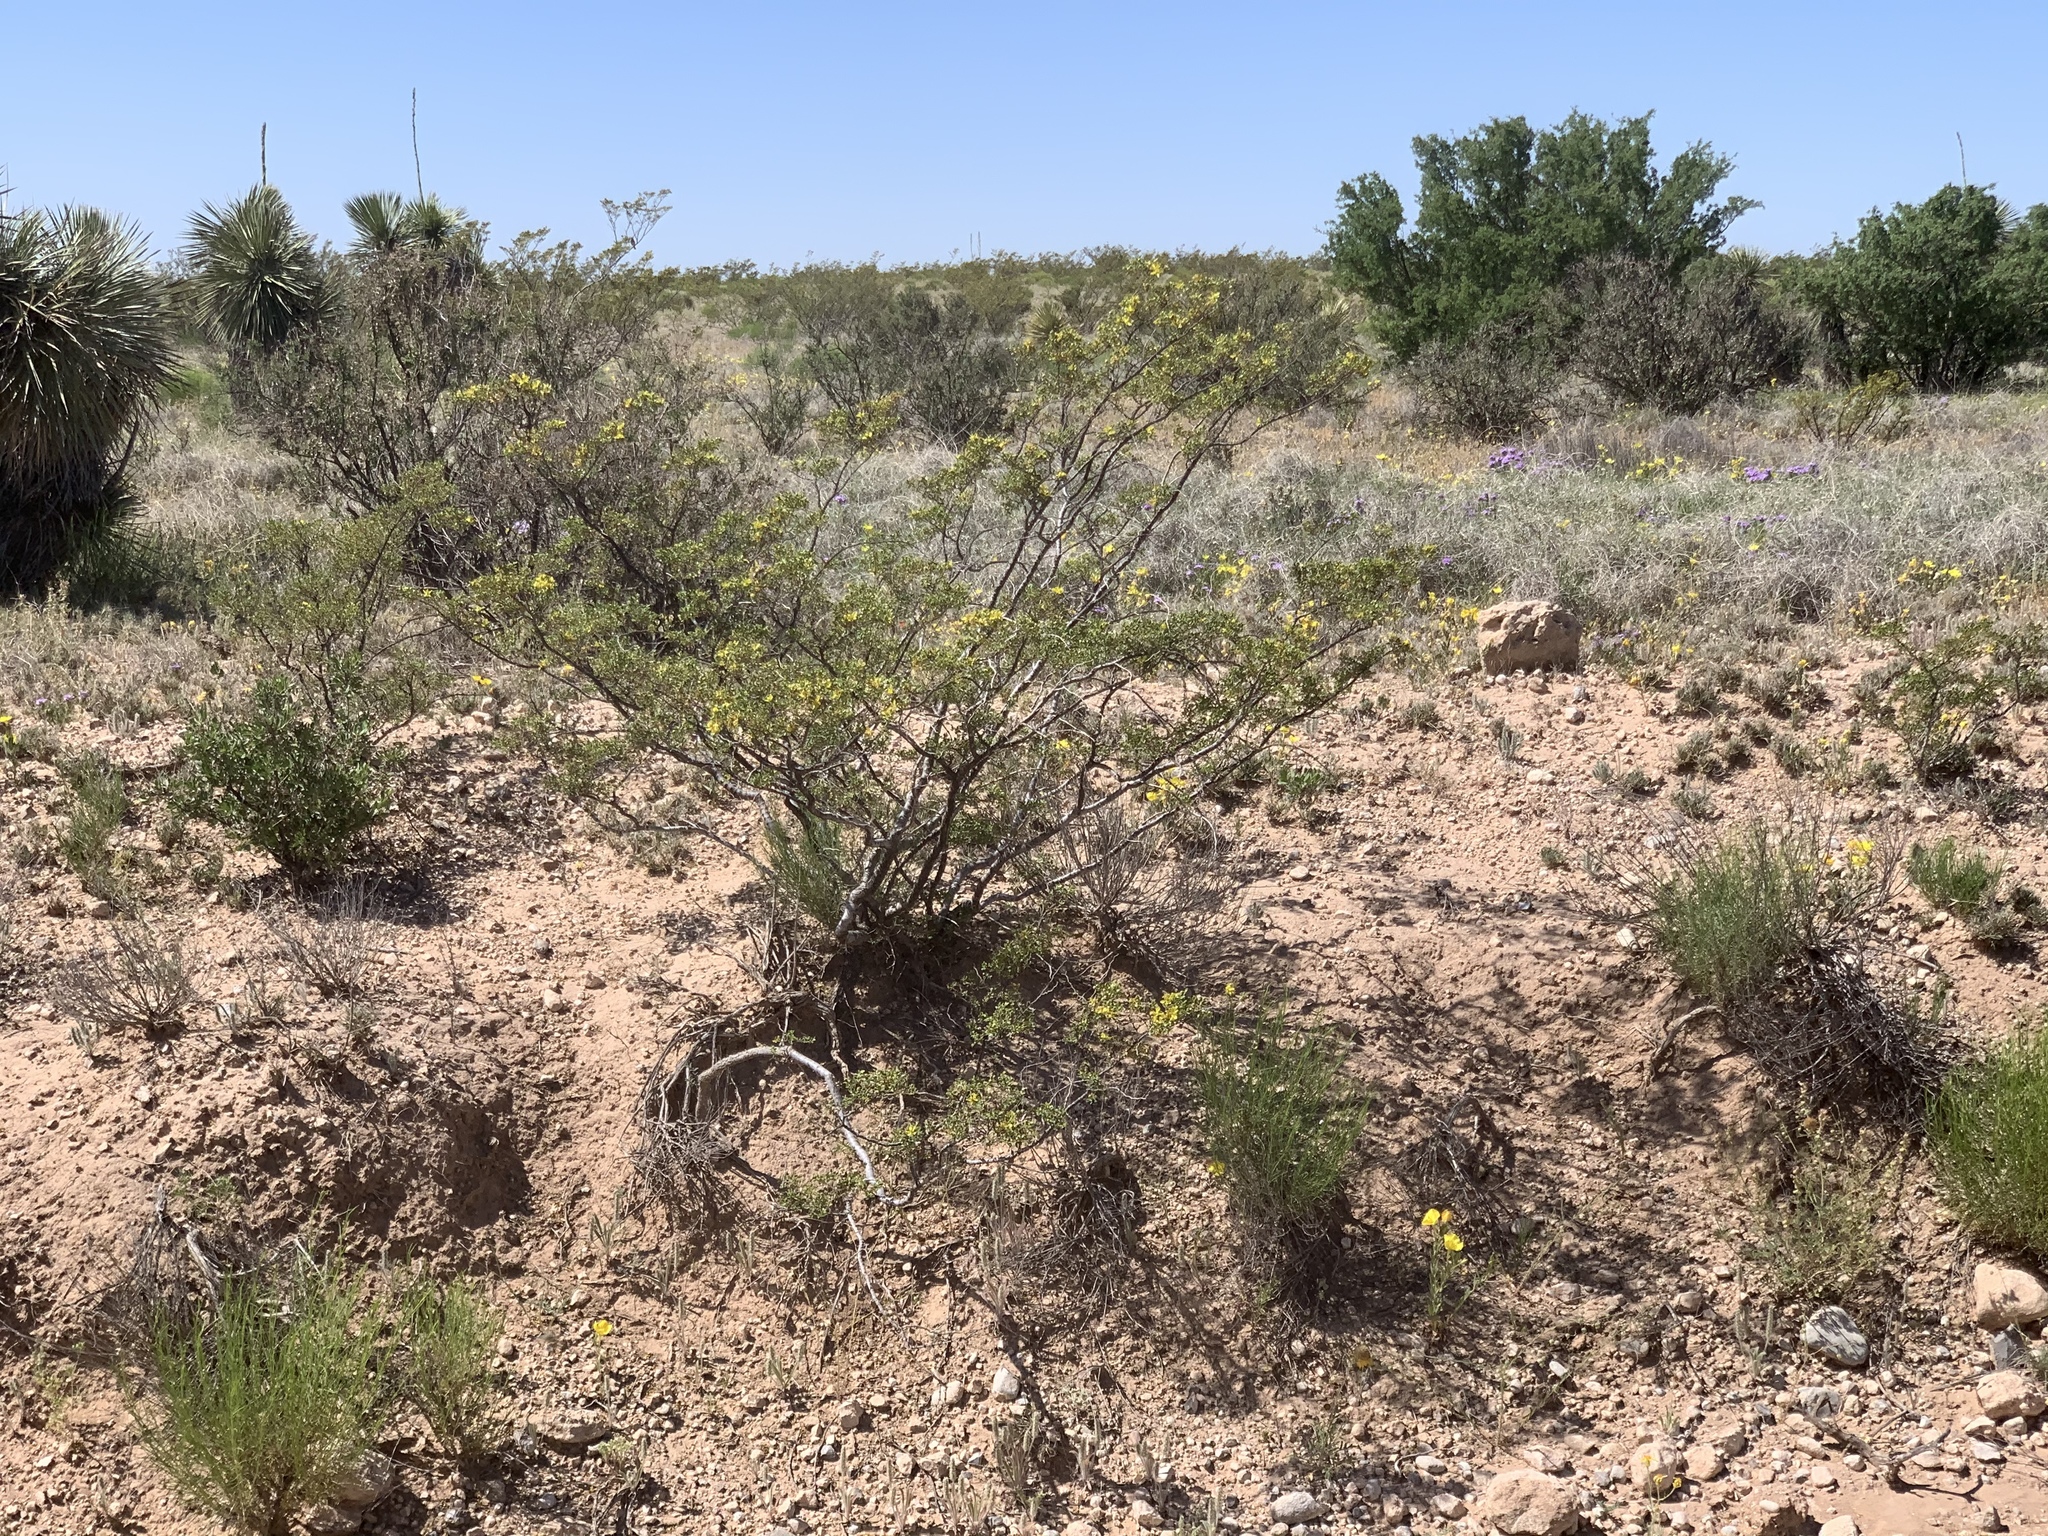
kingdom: Plantae
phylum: Tracheophyta
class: Magnoliopsida
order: Zygophyllales
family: Zygophyllaceae
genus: Larrea
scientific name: Larrea tridentata
